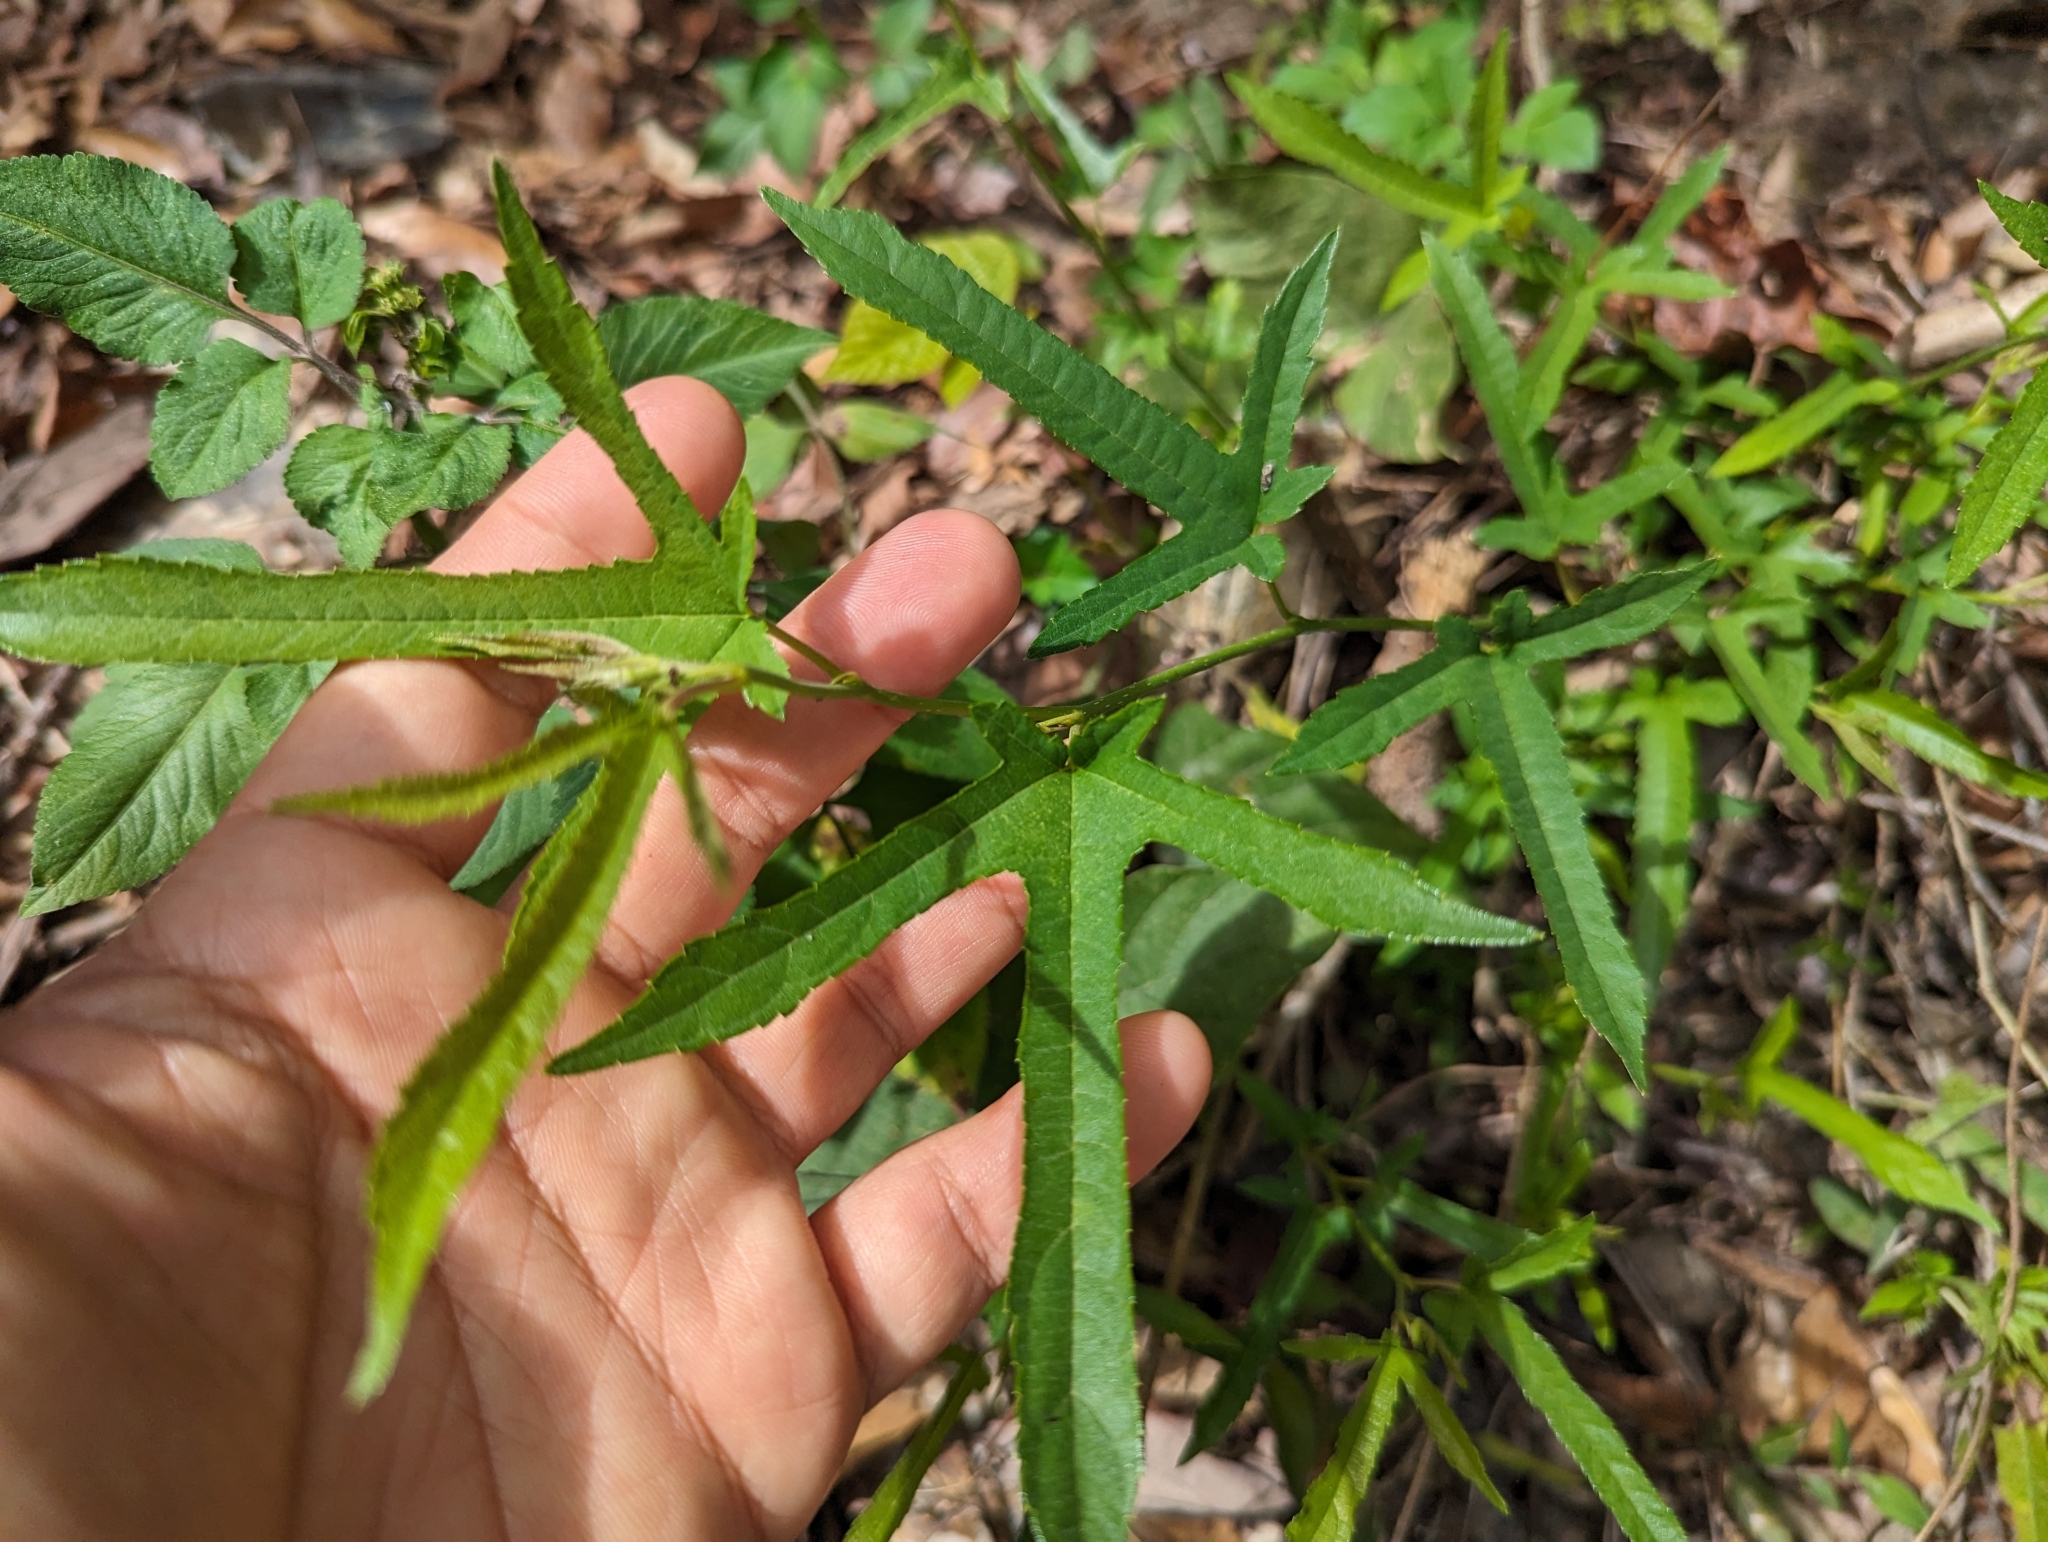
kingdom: Plantae
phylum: Tracheophyta
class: Magnoliopsida
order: Rosales
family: Moraceae
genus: Morus
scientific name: Morus indica
